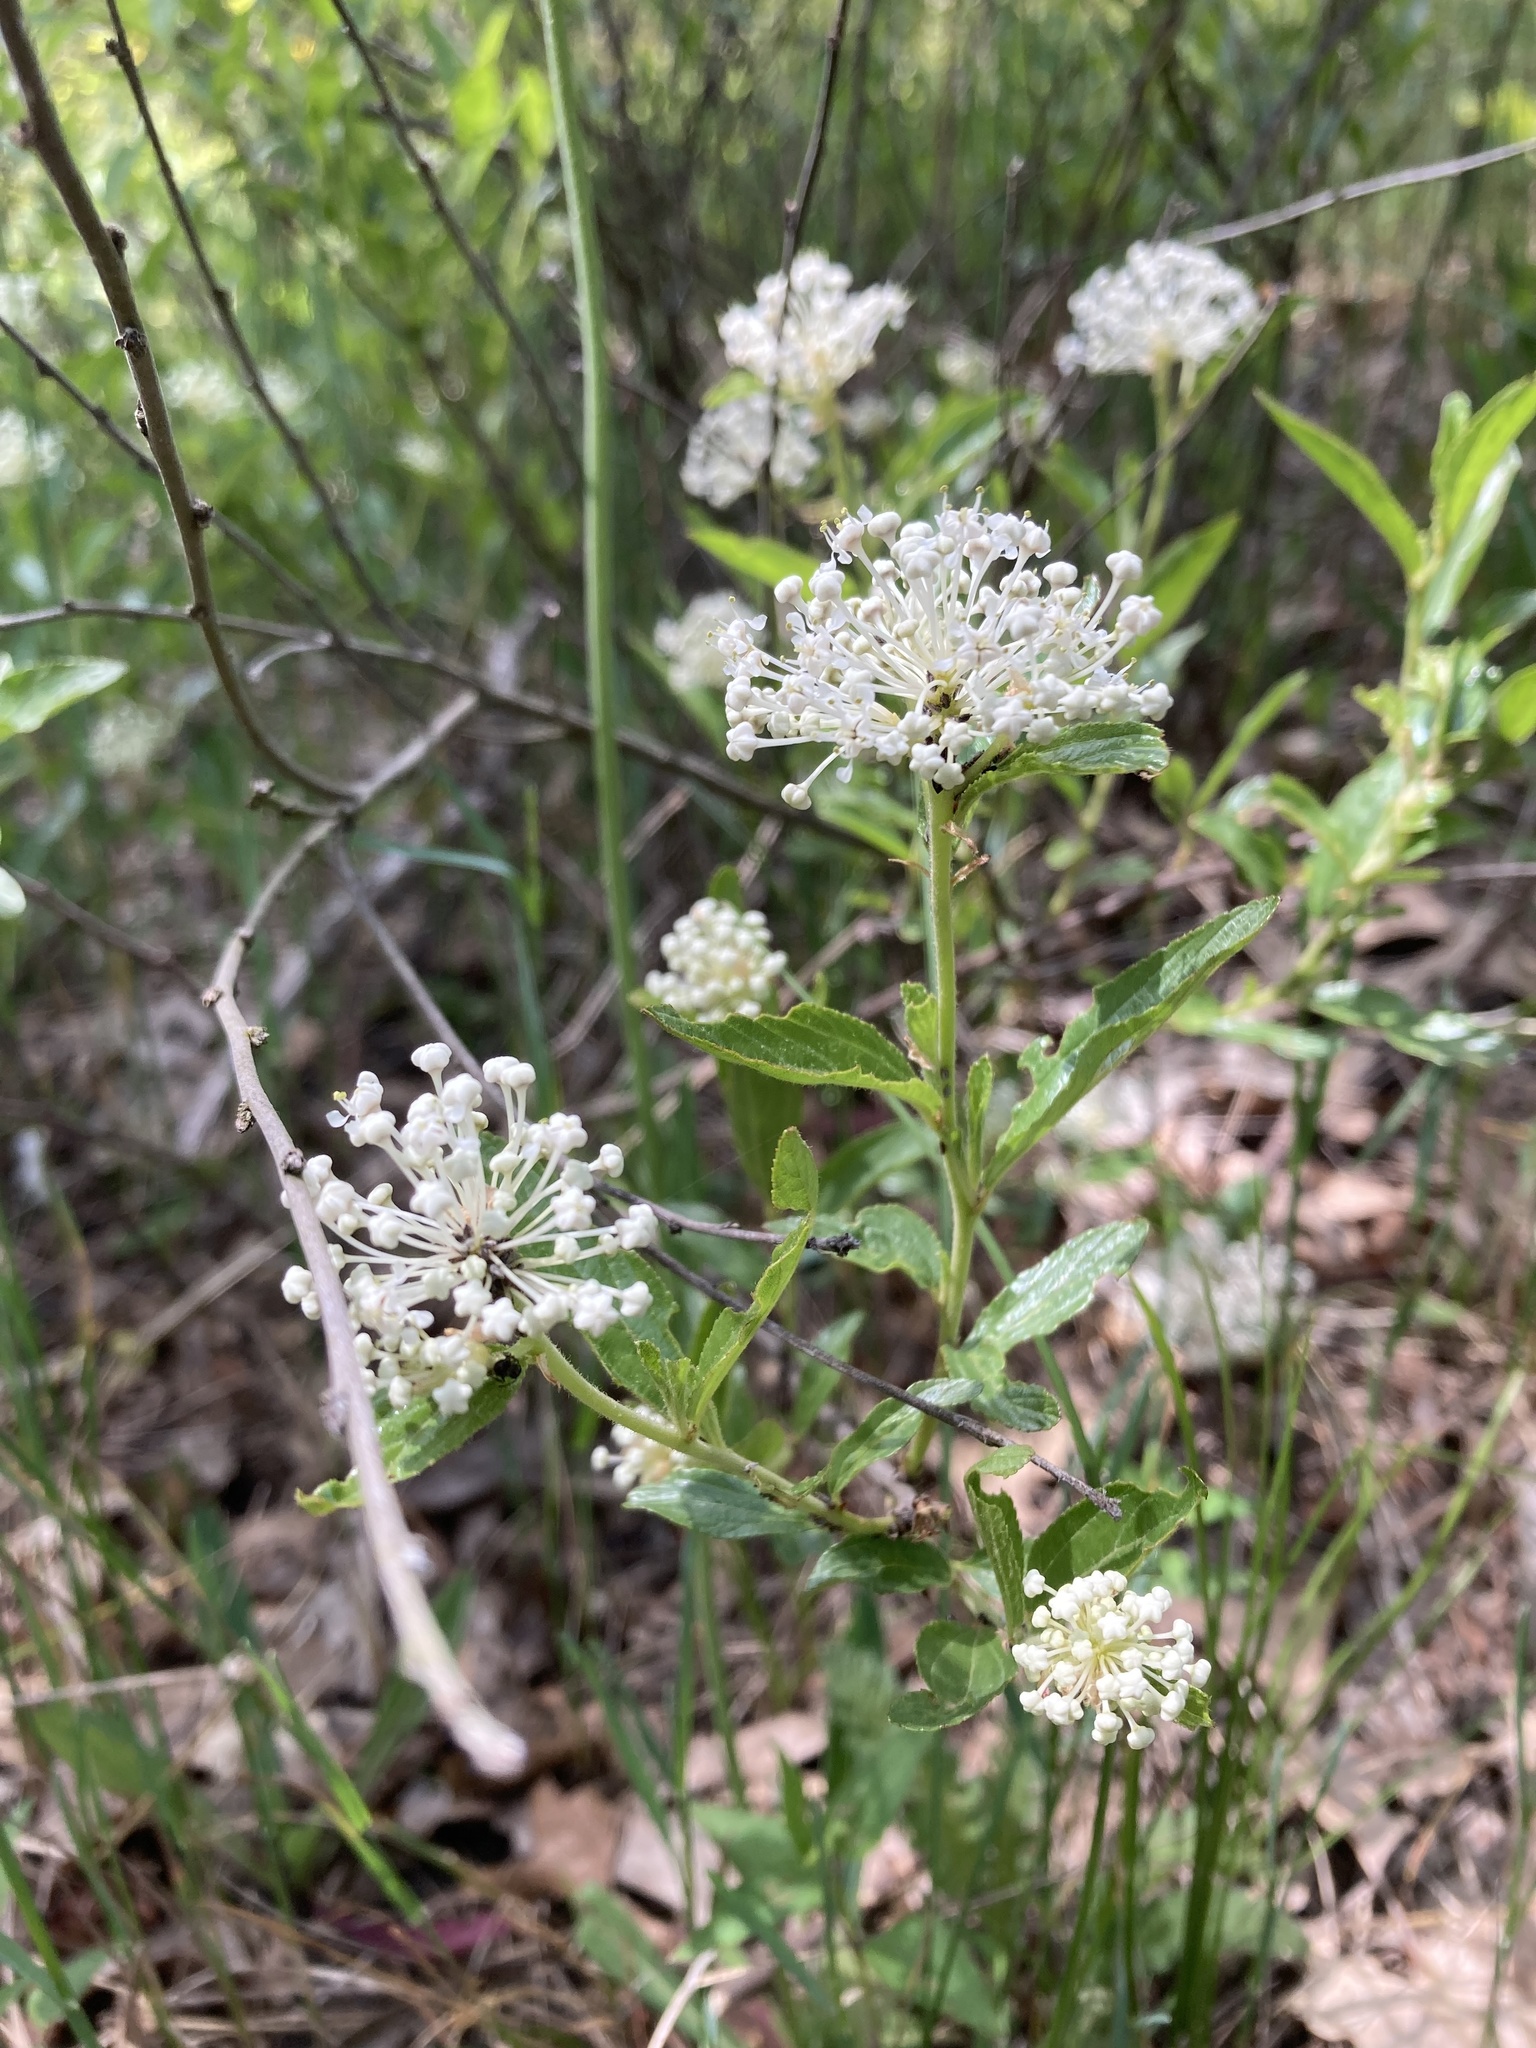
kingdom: Plantae
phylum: Tracheophyta
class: Magnoliopsida
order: Rosales
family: Rhamnaceae
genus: Ceanothus
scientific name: Ceanothus herbaceus
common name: Inland ceanothus
